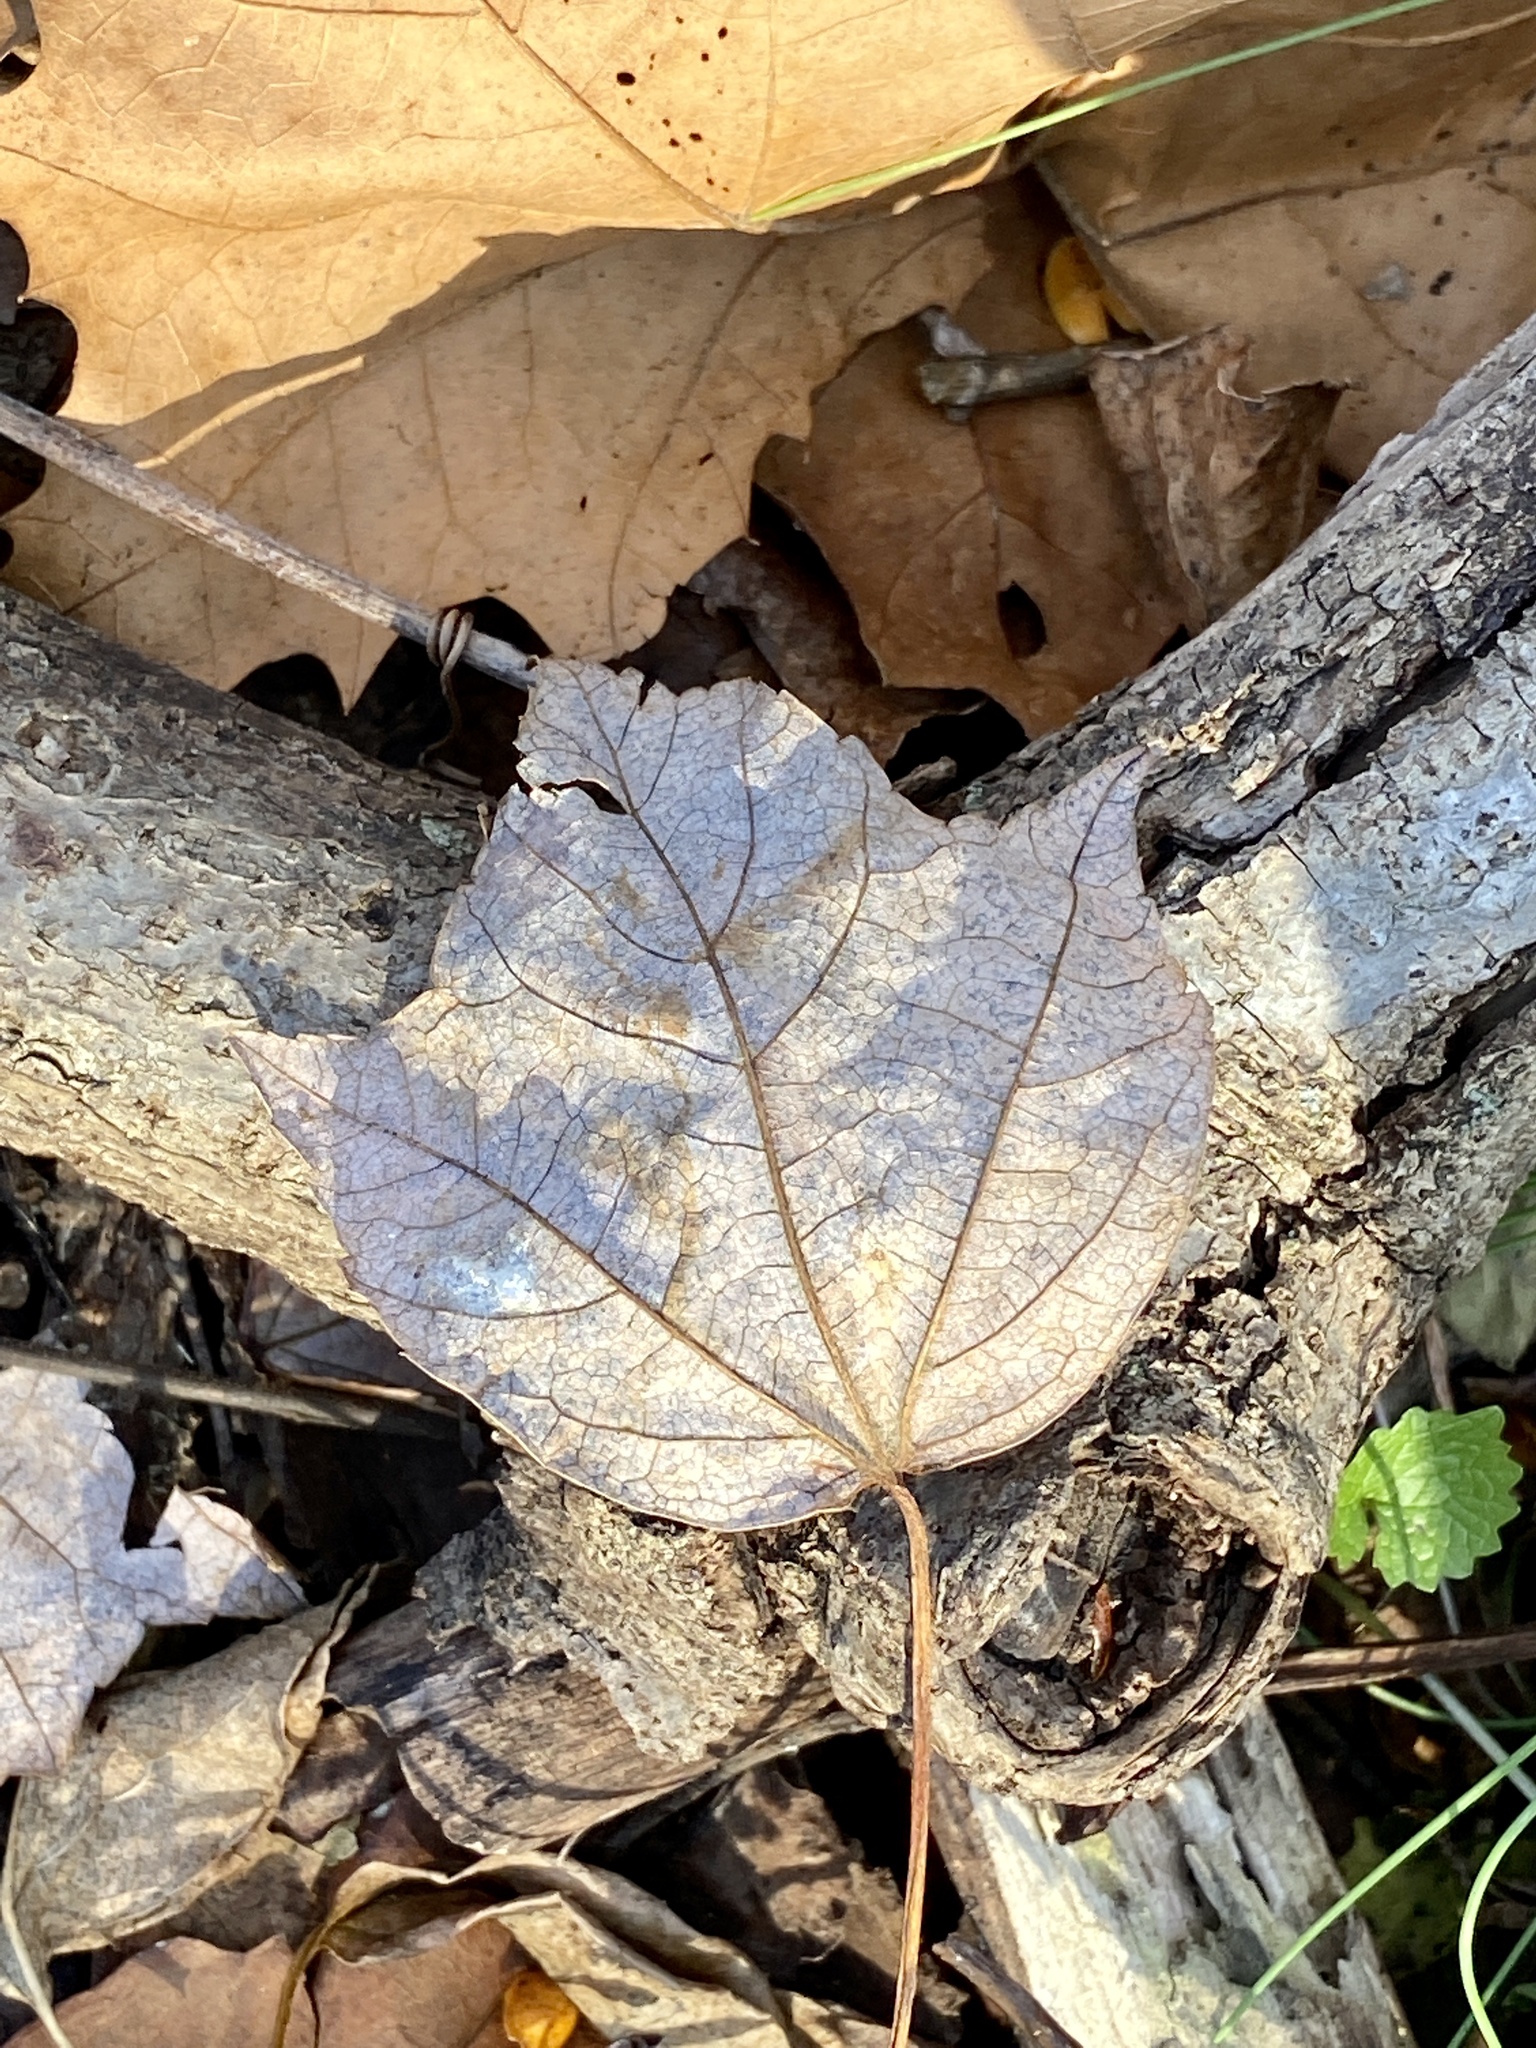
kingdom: Plantae
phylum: Tracheophyta
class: Magnoliopsida
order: Sapindales
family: Sapindaceae
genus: Acer
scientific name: Acer rubrum
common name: Red maple
